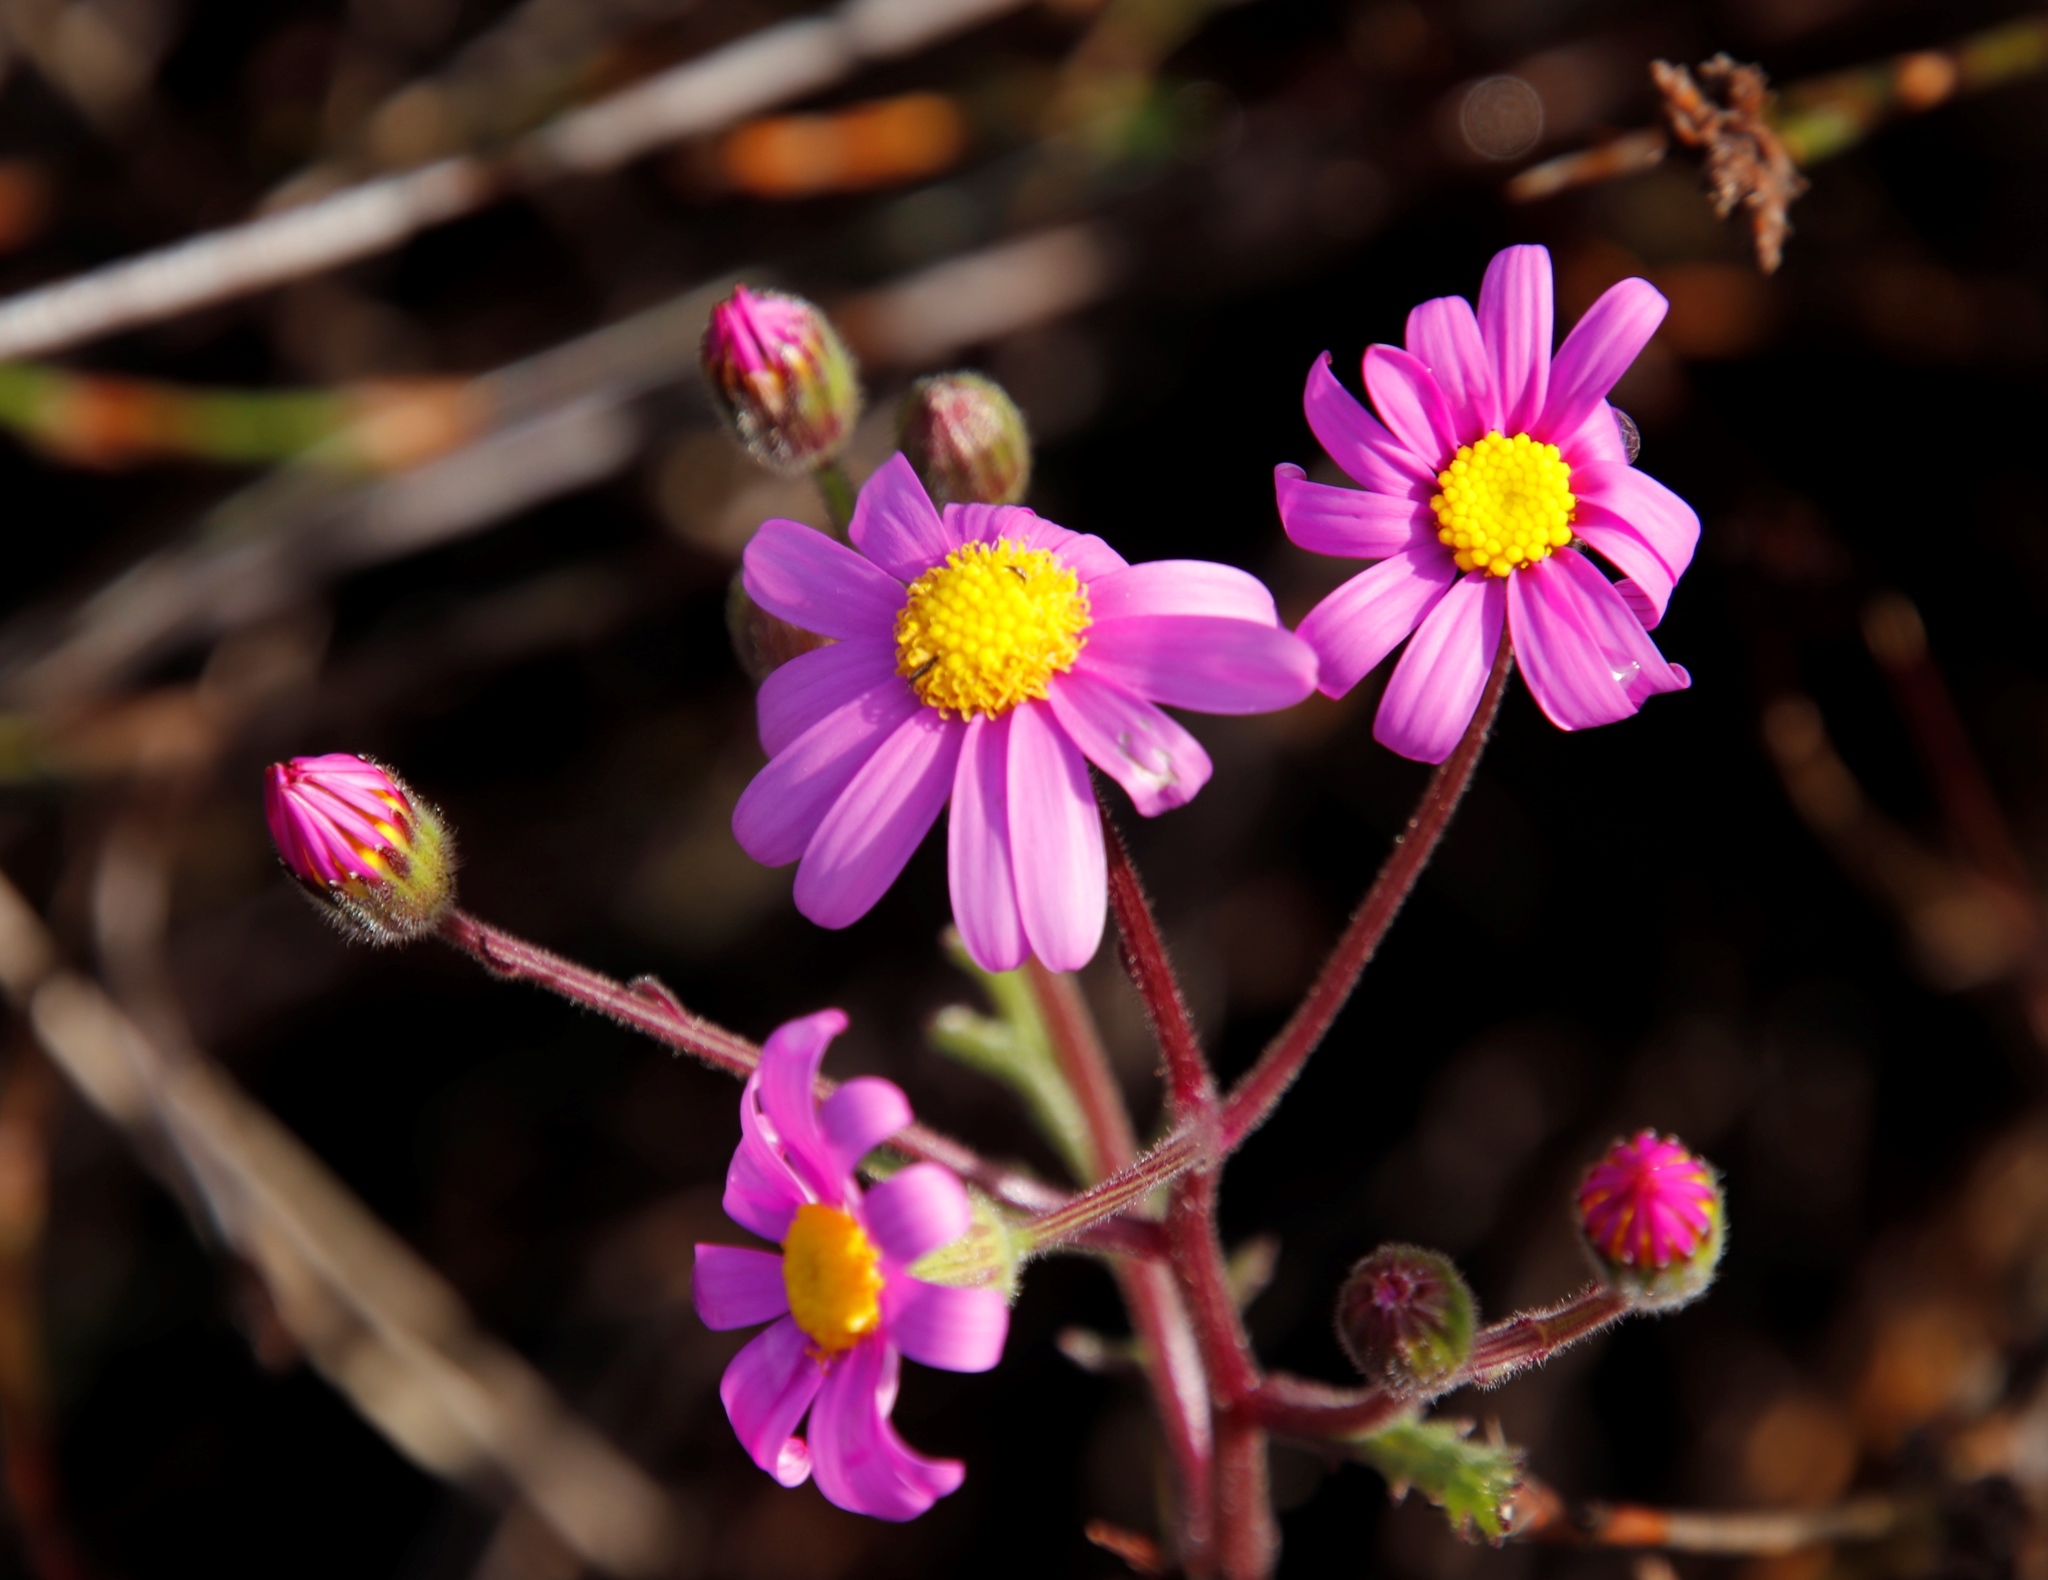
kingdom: Plantae
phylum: Tracheophyta
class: Magnoliopsida
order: Asterales
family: Asteraceae
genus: Senecio
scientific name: Senecio arenarius
